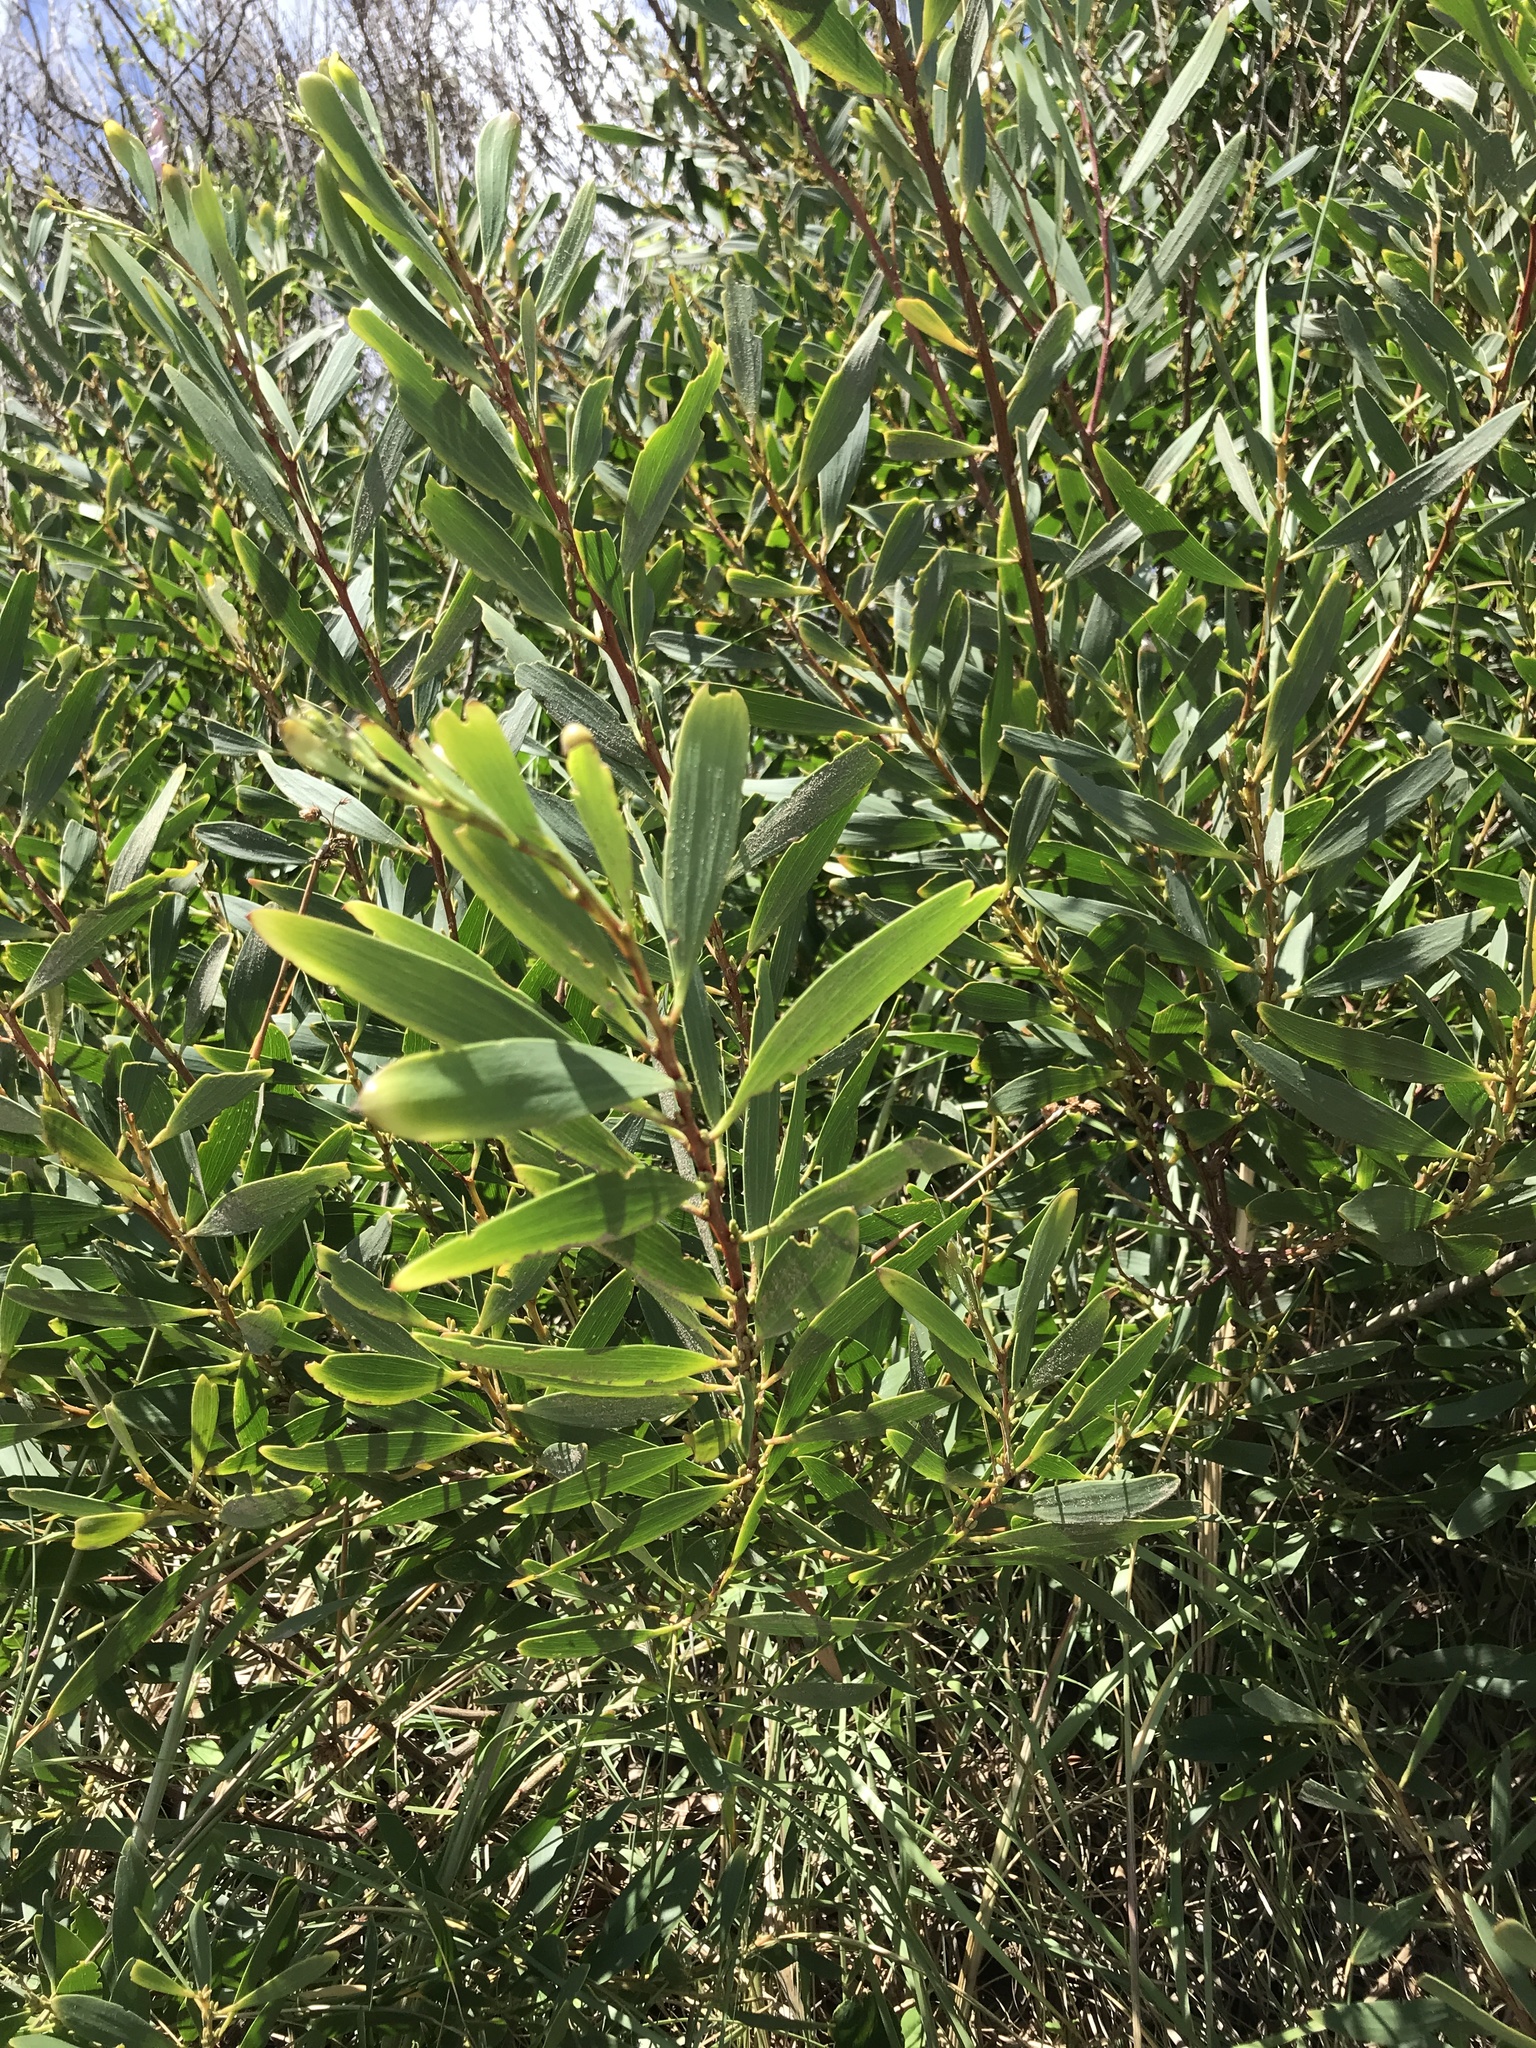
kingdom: Plantae
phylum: Tracheophyta
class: Magnoliopsida
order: Fabales
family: Fabaceae
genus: Acacia
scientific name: Acacia longifolia
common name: Sydney golden wattle
